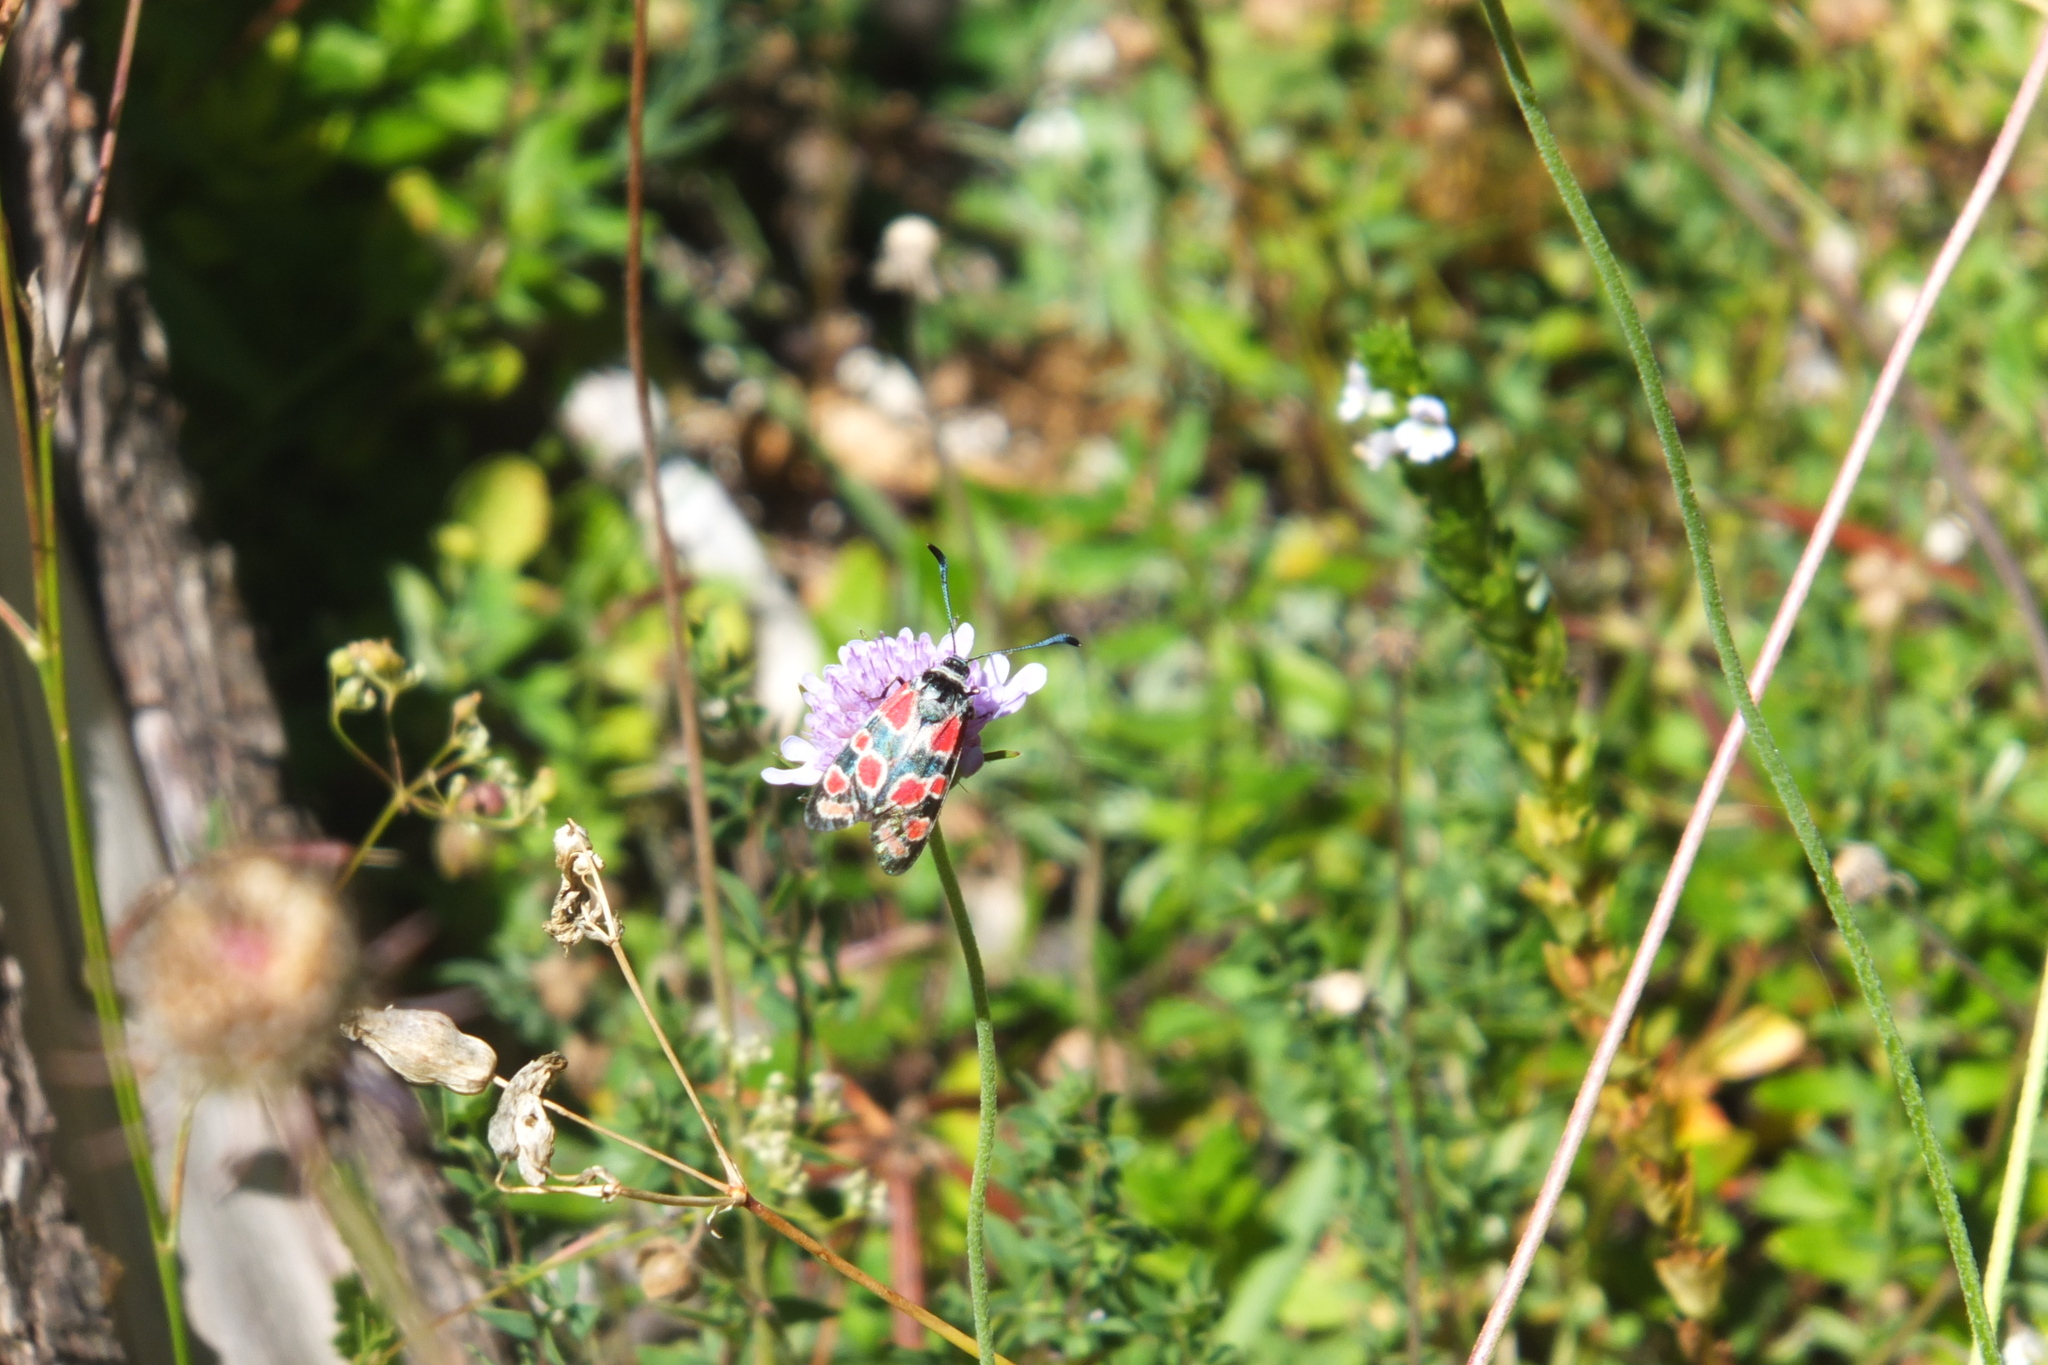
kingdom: Animalia
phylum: Arthropoda
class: Insecta
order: Lepidoptera
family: Zygaenidae
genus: Zygaena
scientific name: Zygaena carniolica
